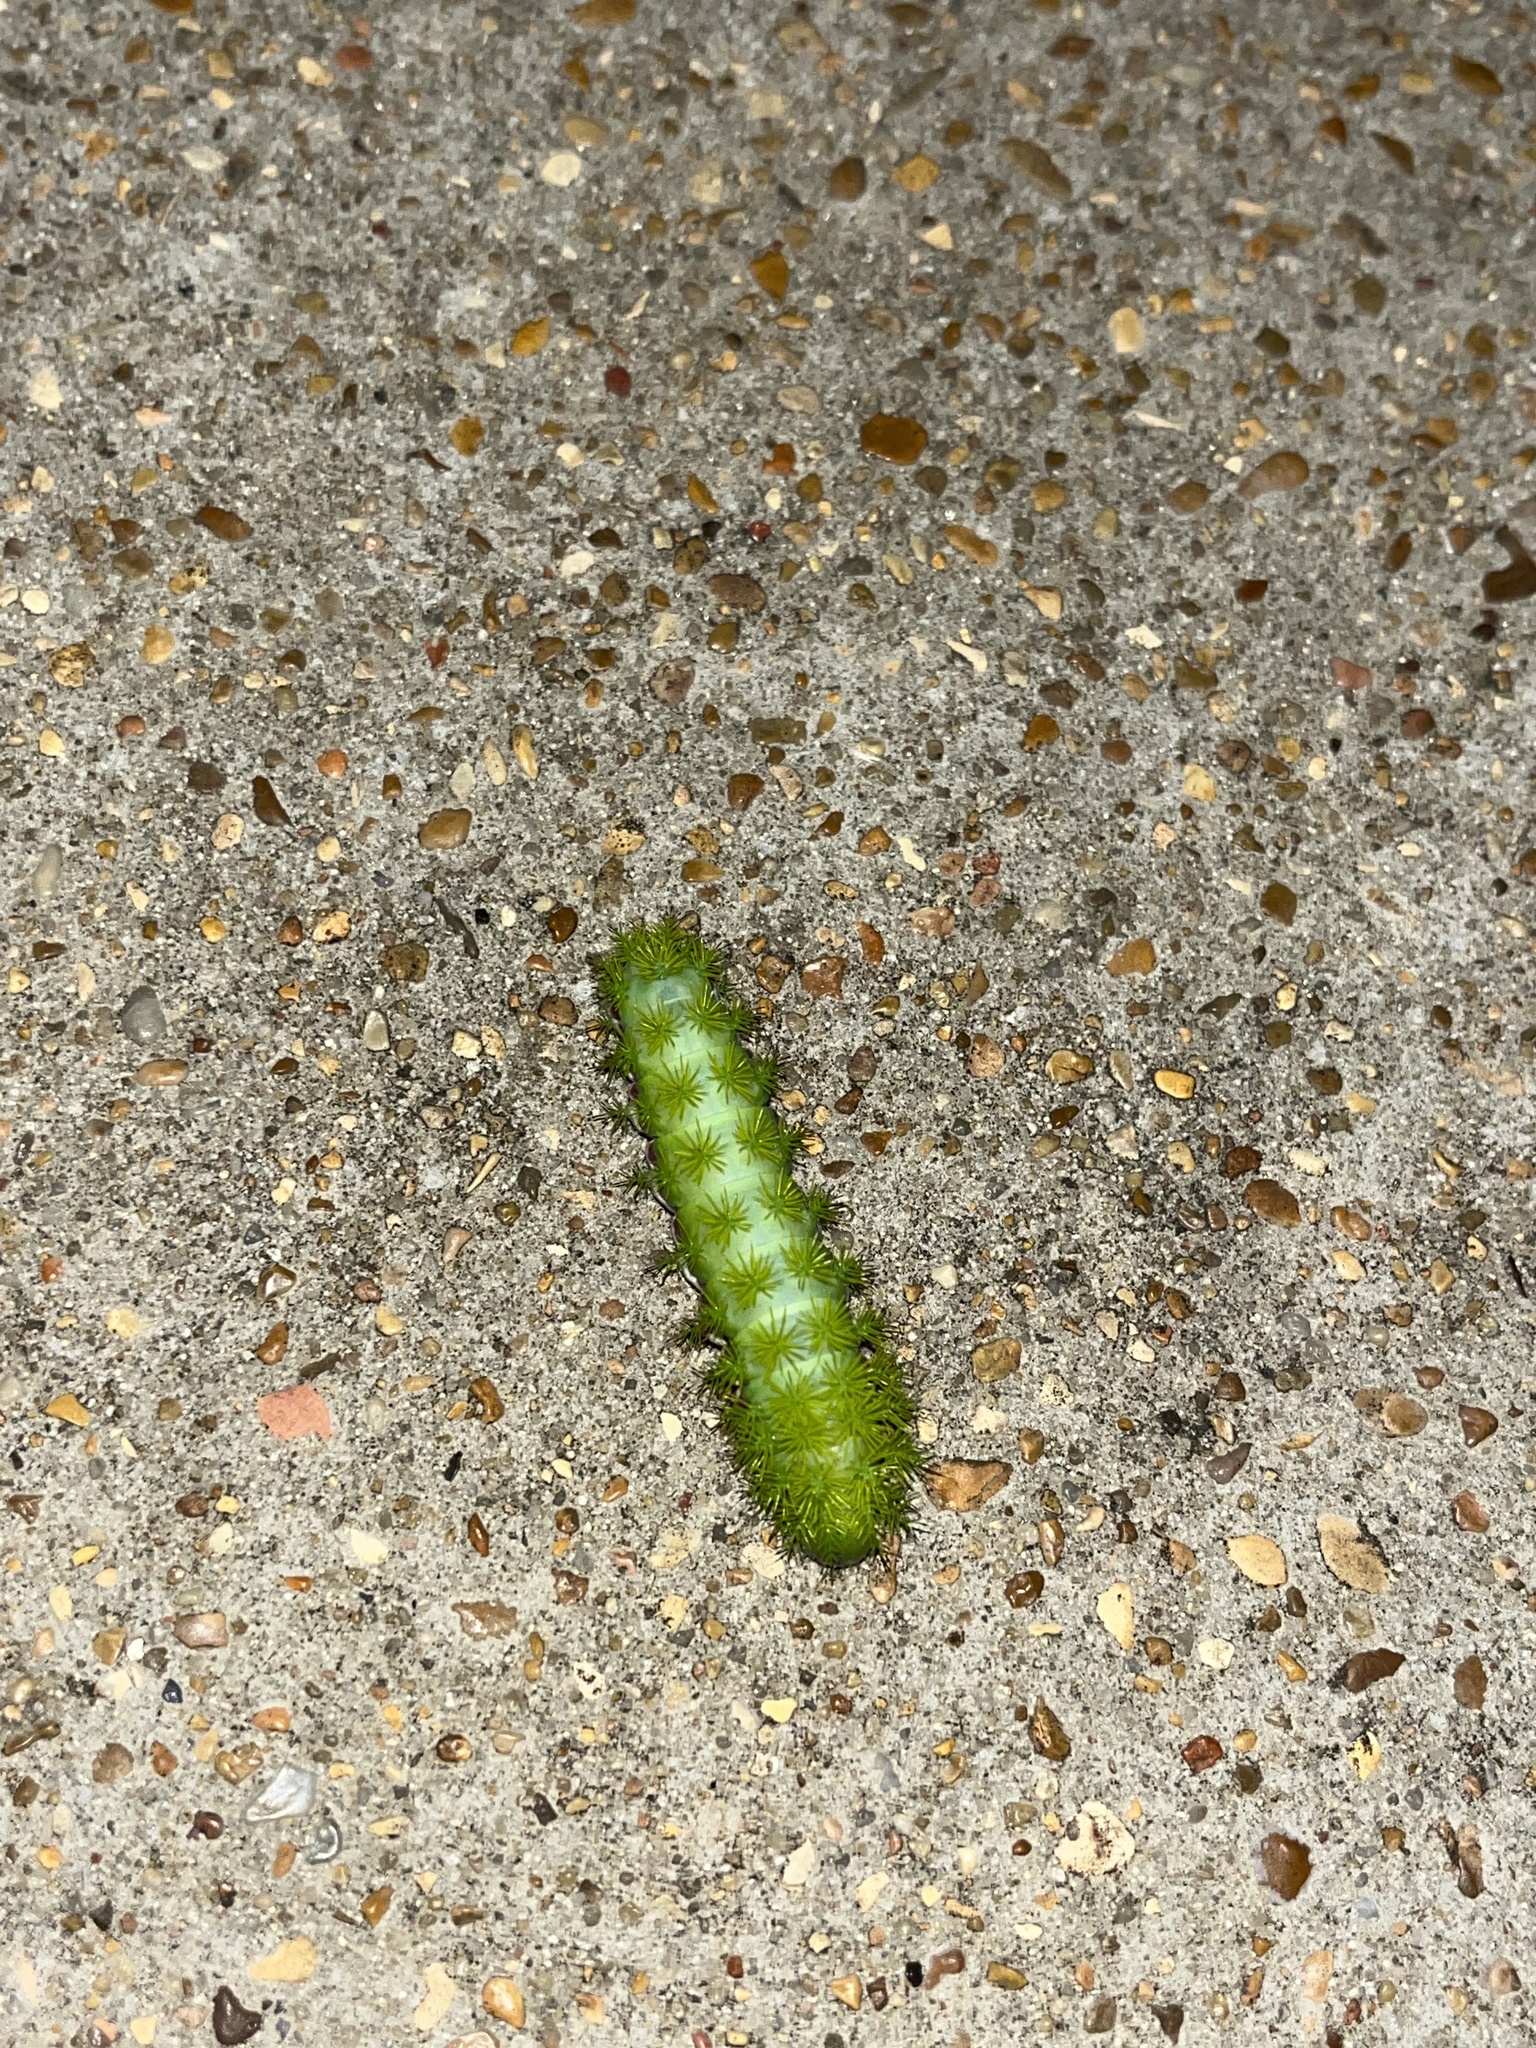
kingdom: Animalia
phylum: Arthropoda
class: Insecta
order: Lepidoptera
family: Saturniidae
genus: Automeris
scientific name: Automeris io
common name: Io moth
